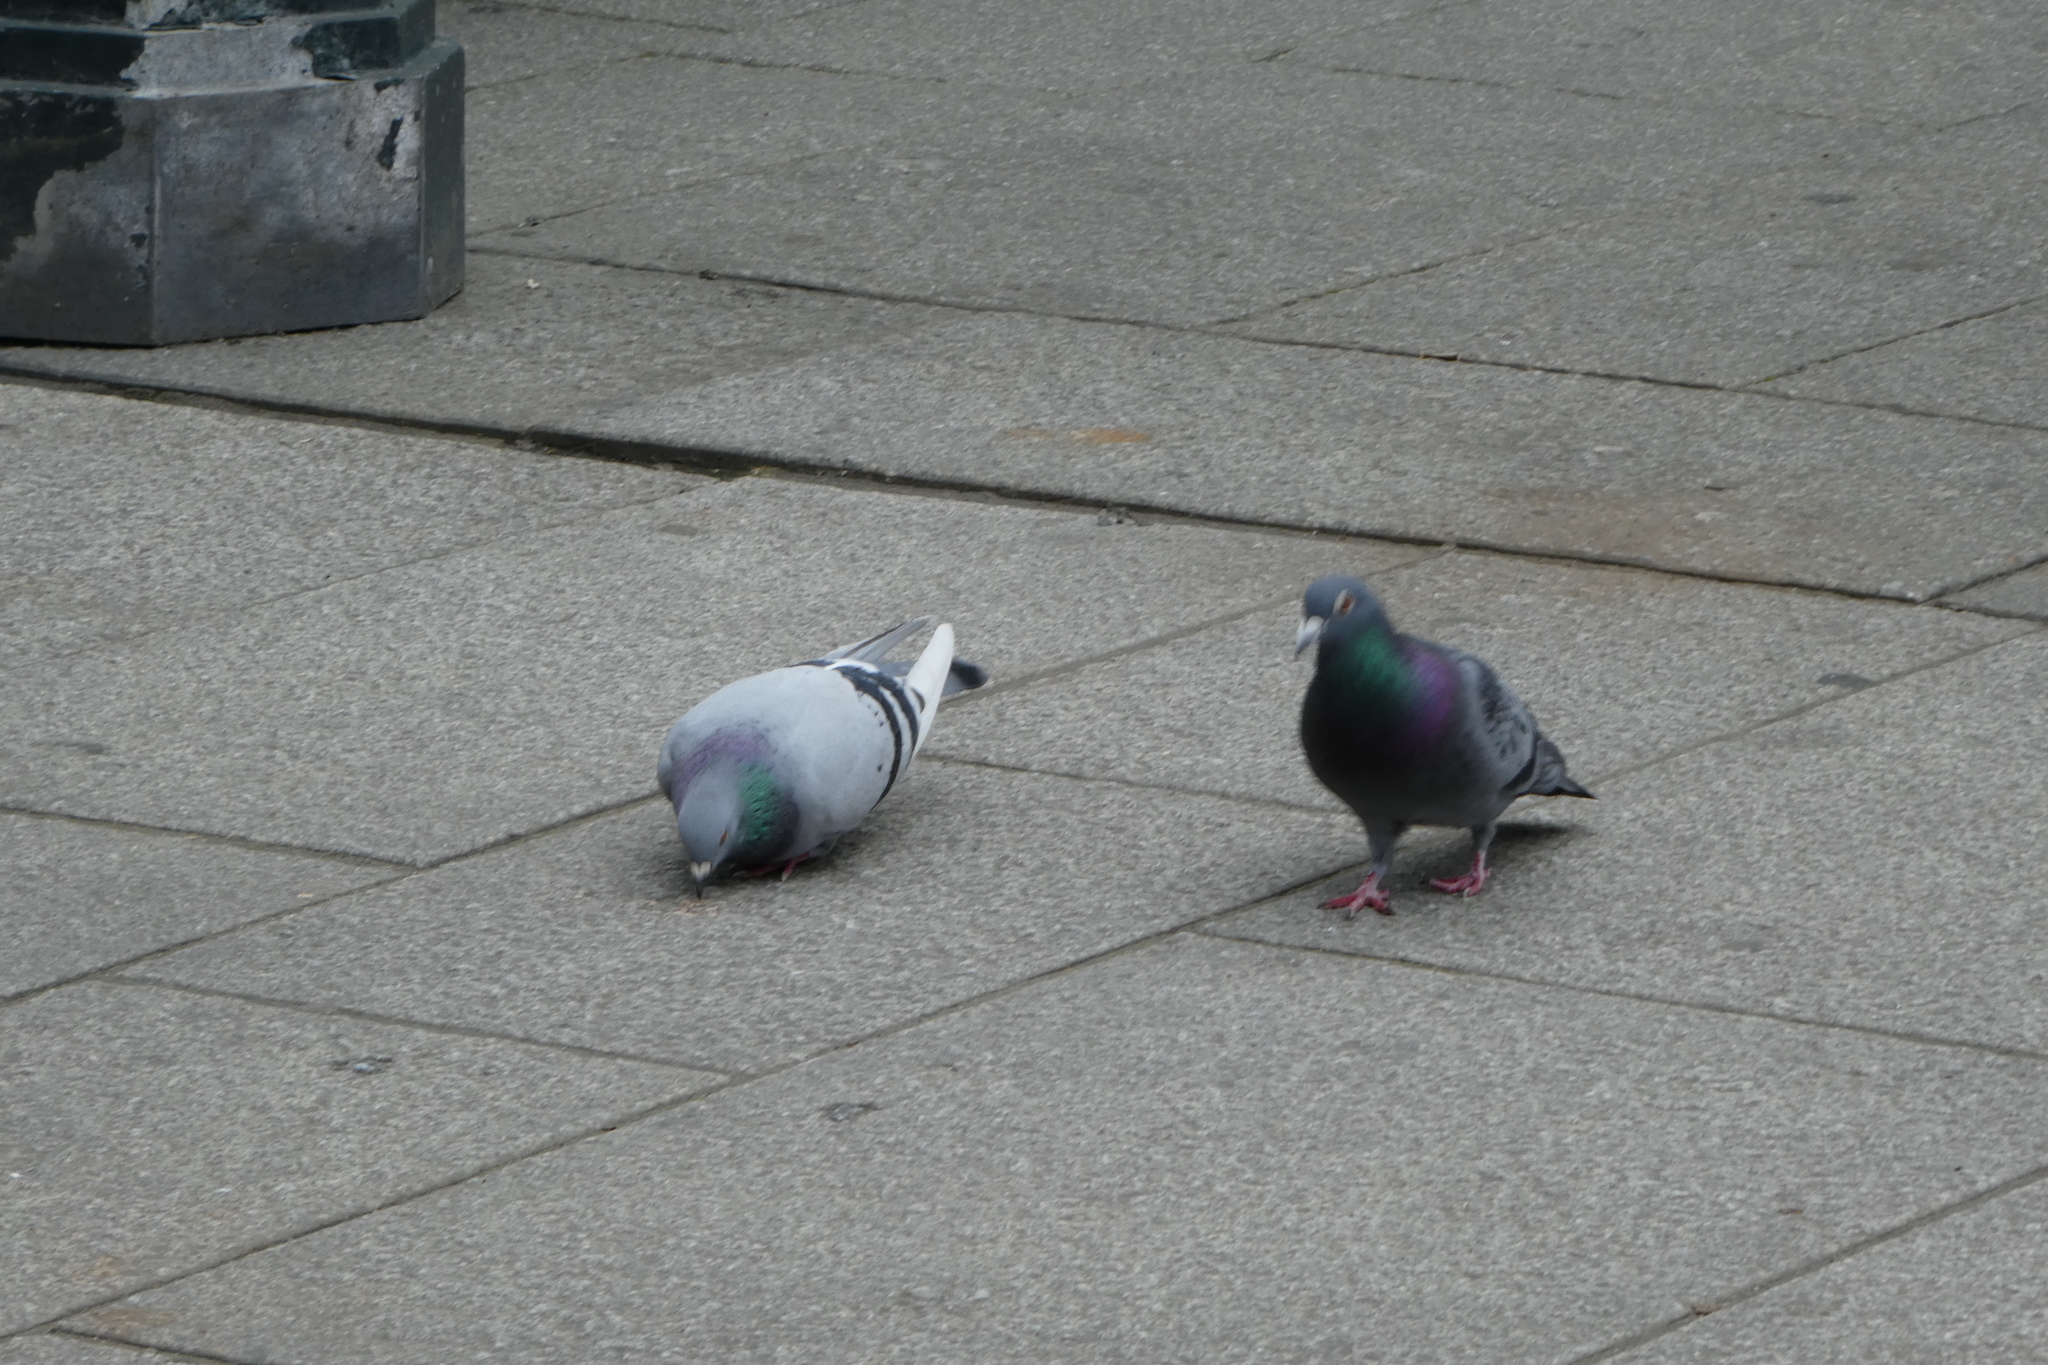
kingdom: Animalia
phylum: Chordata
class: Aves
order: Columbiformes
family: Columbidae
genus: Columba
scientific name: Columba livia
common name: Rock pigeon
